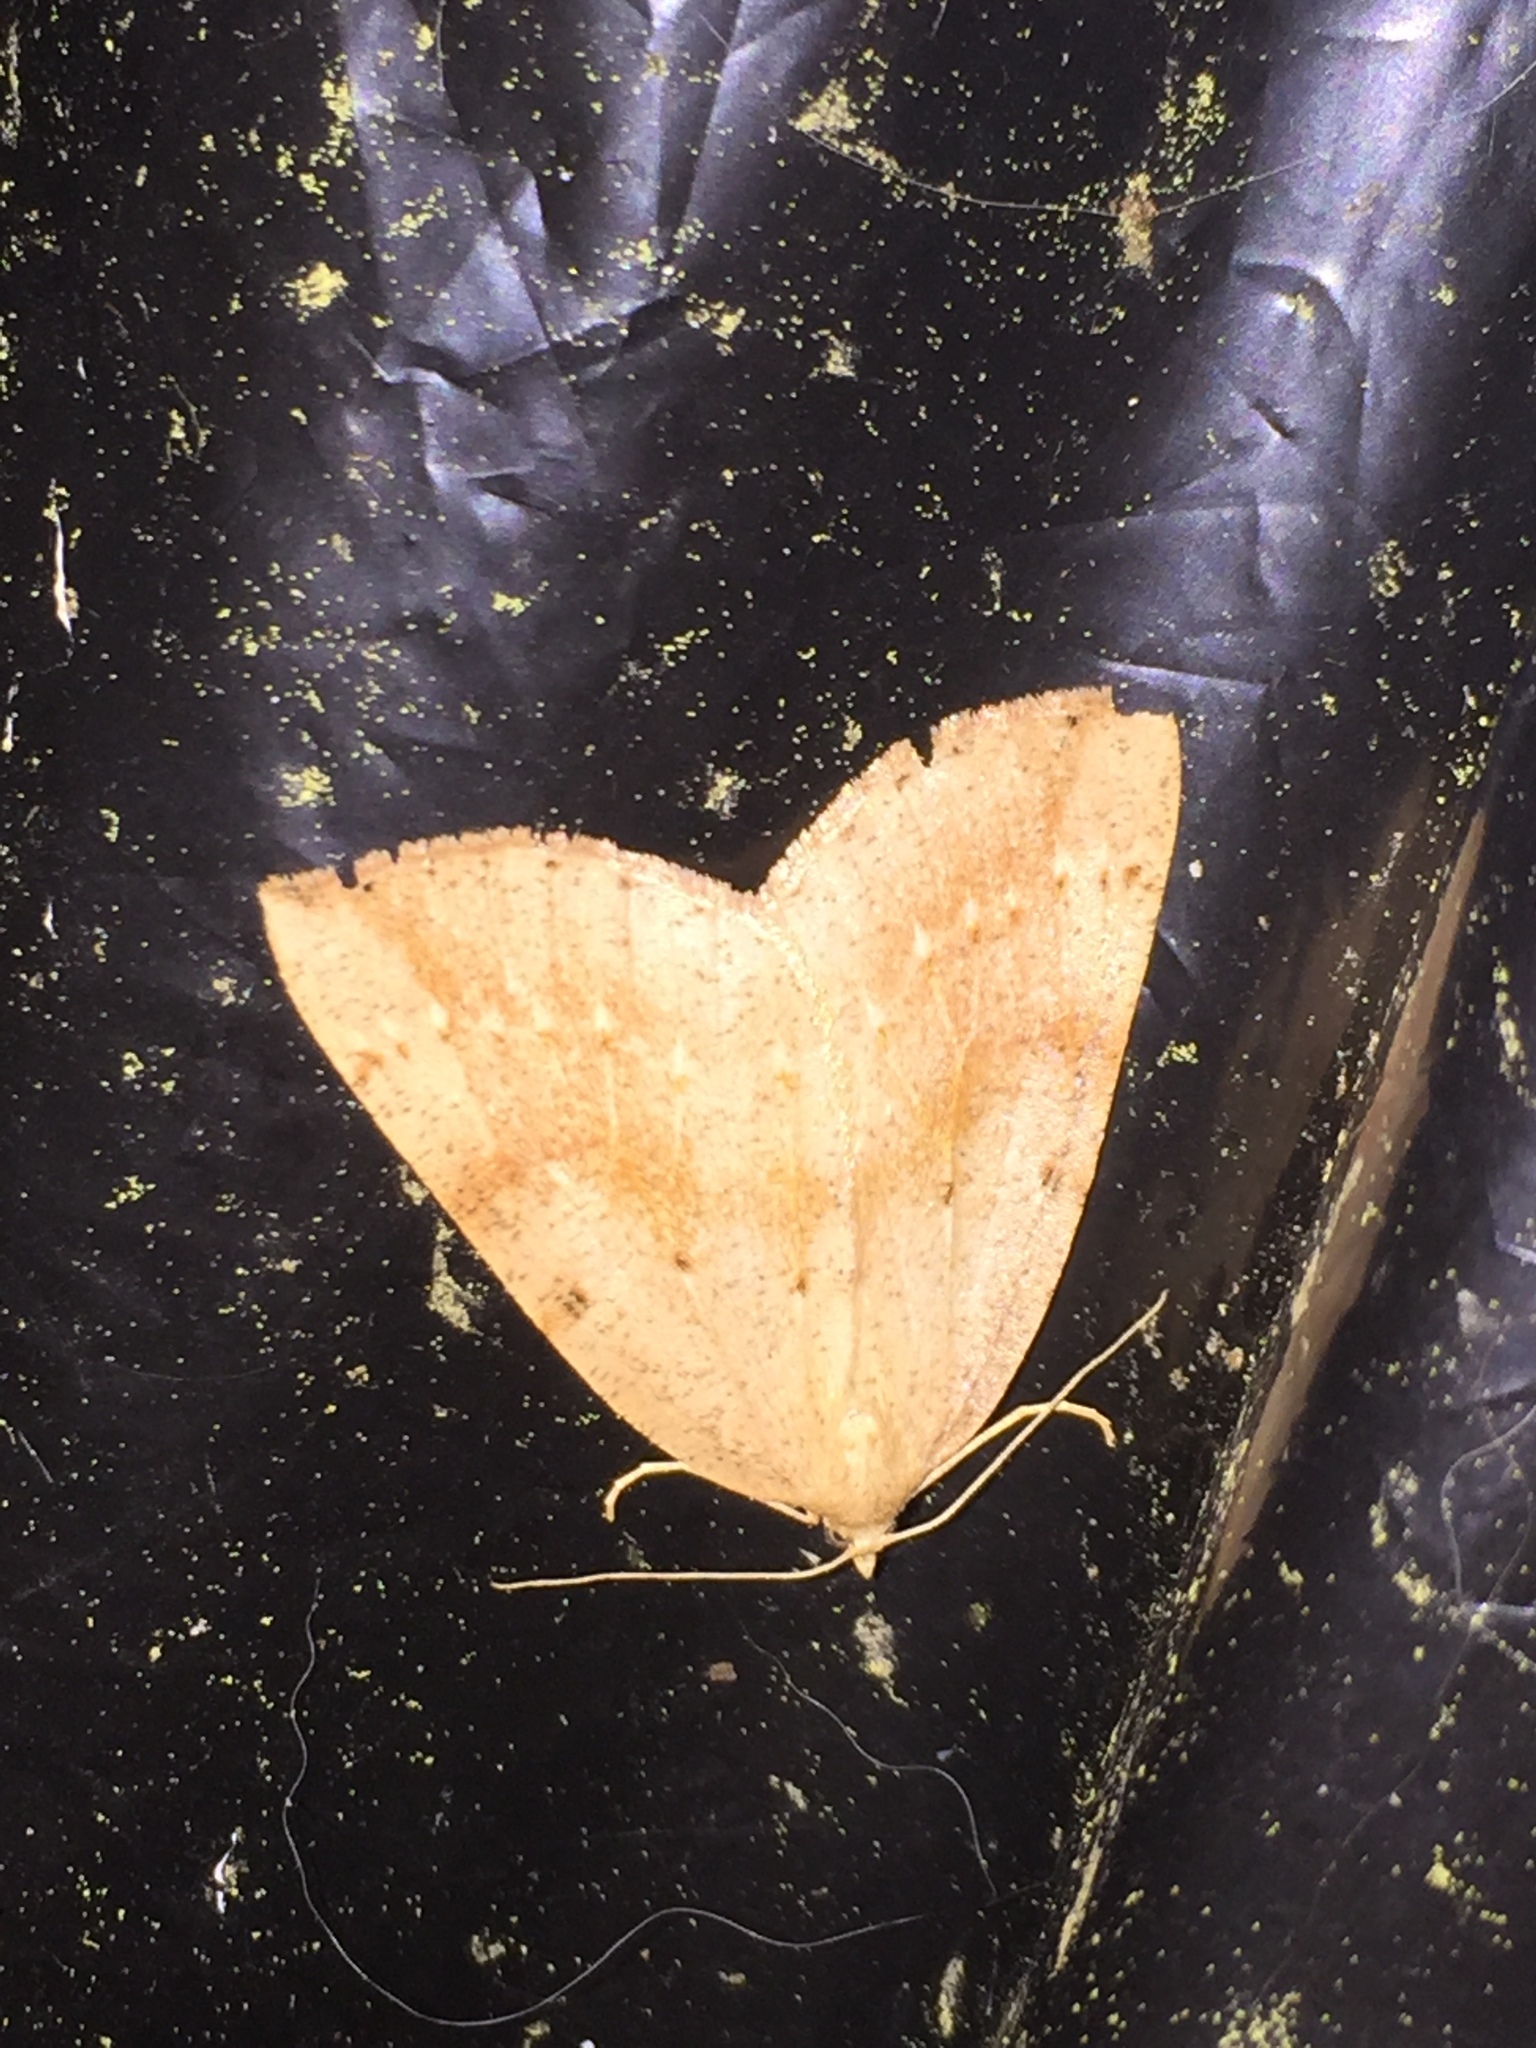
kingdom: Animalia
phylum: Arthropoda
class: Insecta
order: Lepidoptera
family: Geometridae
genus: Thallophaga
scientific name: Thallophaga hyperborea
